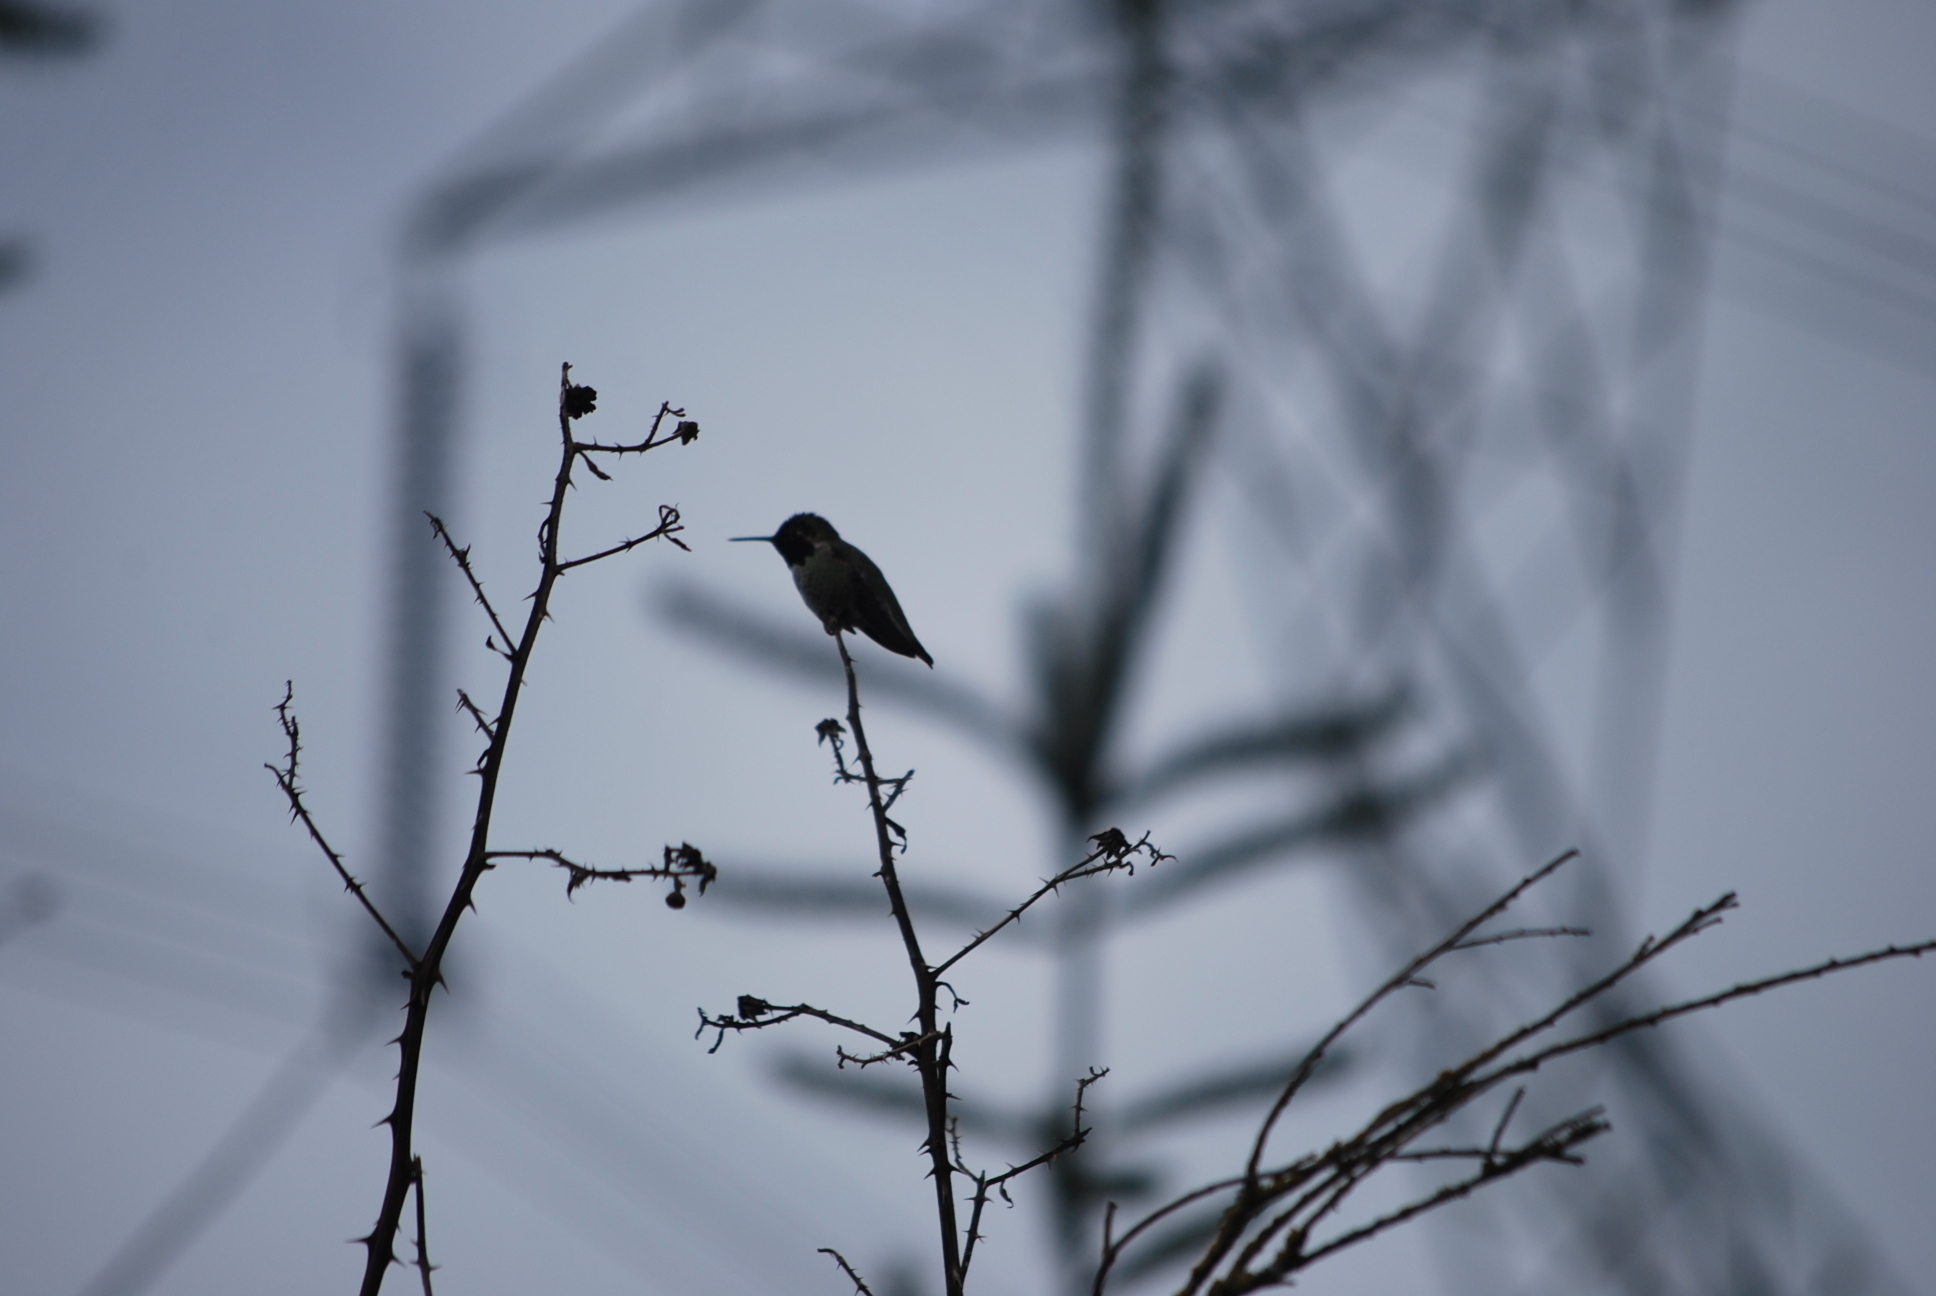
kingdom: Animalia
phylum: Chordata
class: Aves
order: Apodiformes
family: Trochilidae
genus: Calypte
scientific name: Calypte anna
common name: Anna's hummingbird
